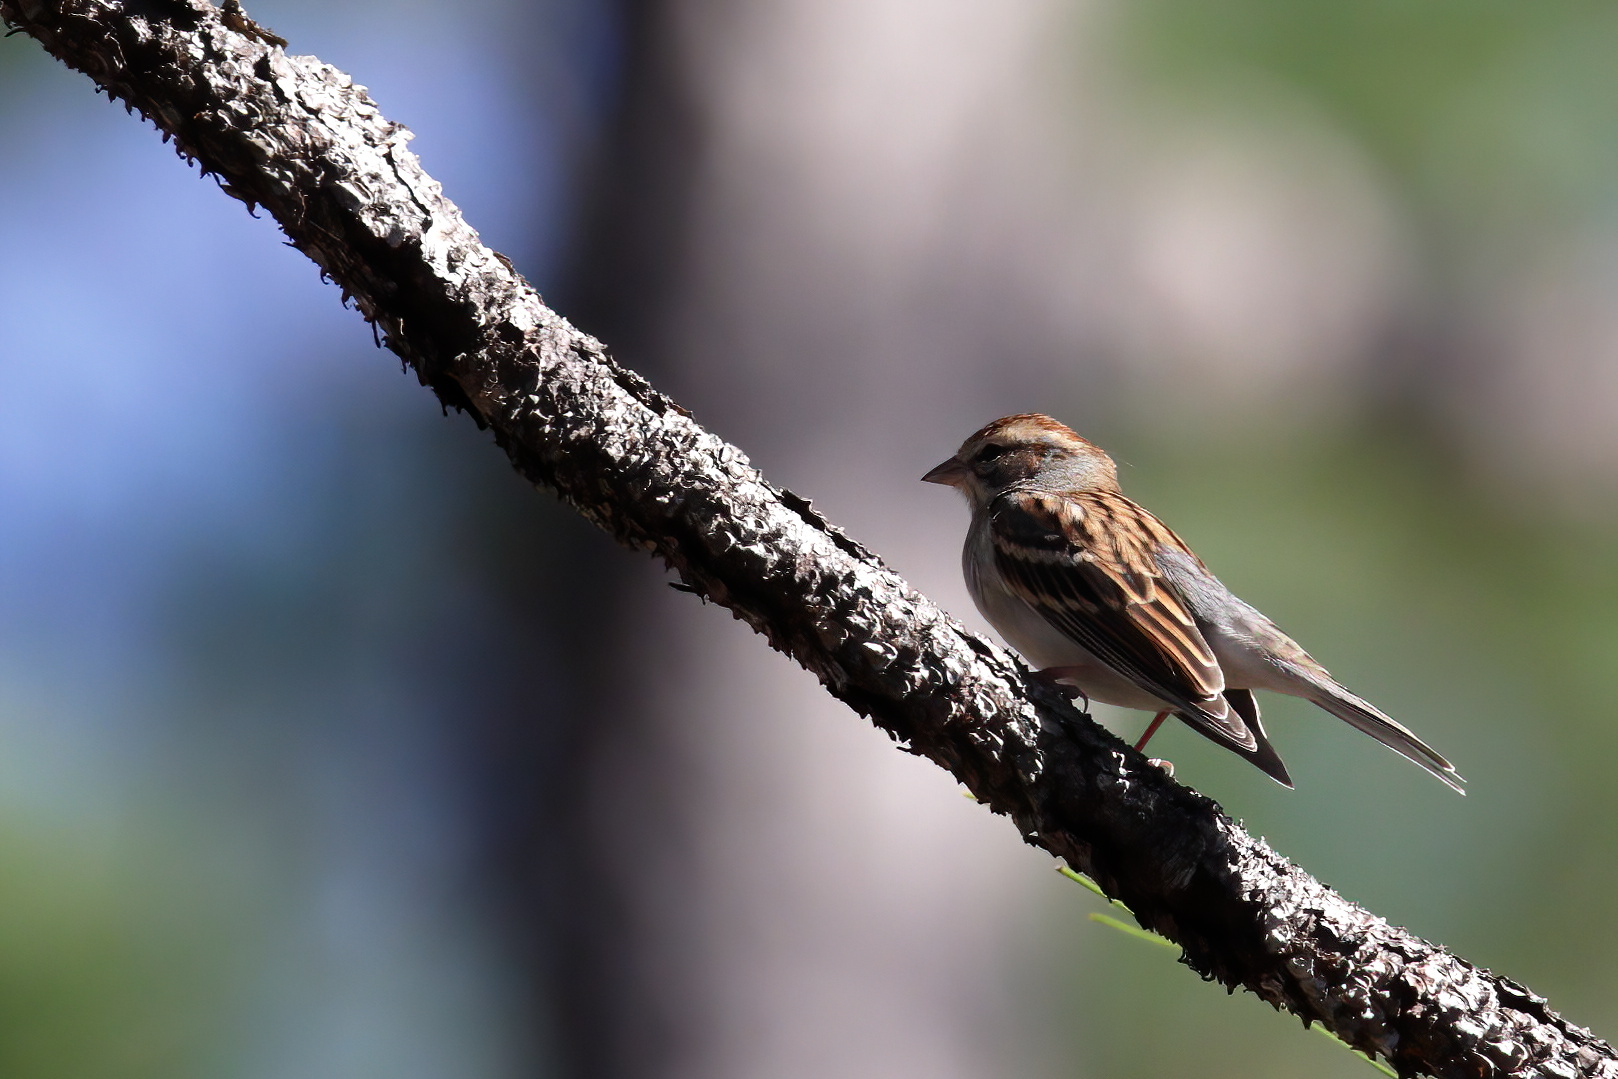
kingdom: Animalia
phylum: Chordata
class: Aves
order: Passeriformes
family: Passerellidae
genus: Spizella
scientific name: Spizella passerina
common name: Chipping sparrow
